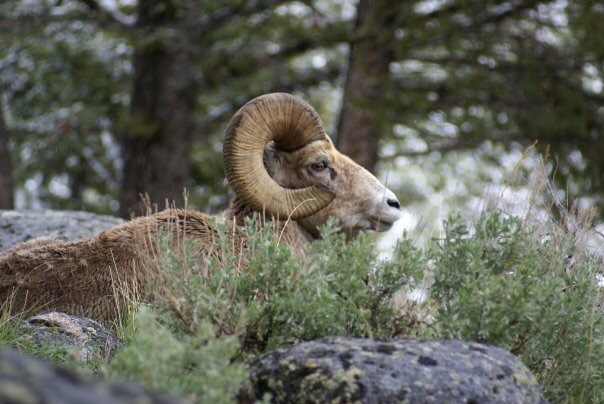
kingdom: Animalia
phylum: Chordata
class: Mammalia
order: Artiodactyla
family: Bovidae
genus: Ovis
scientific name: Ovis canadensis
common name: Bighorn sheep
